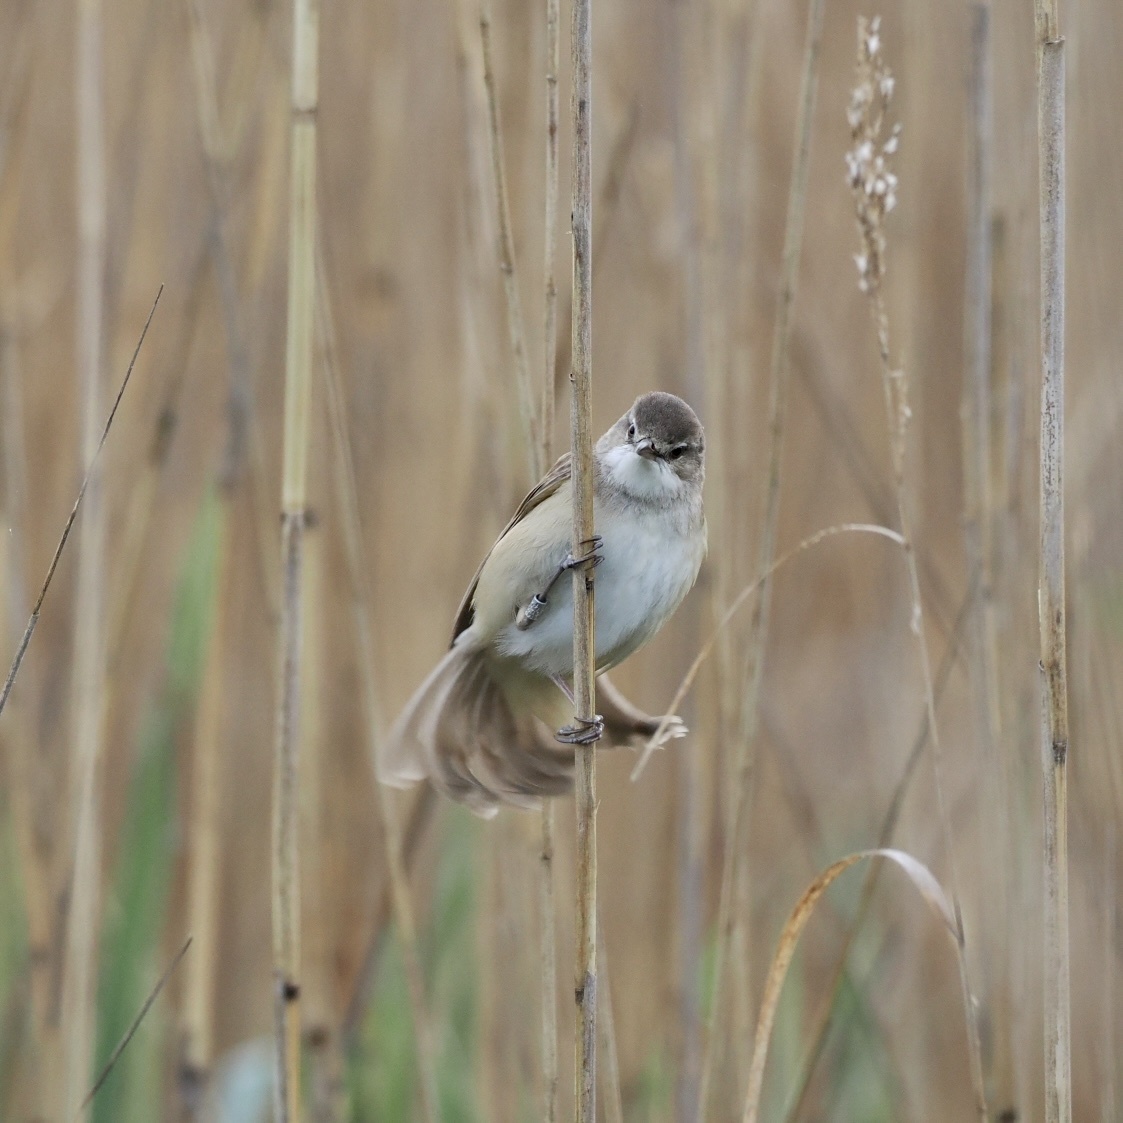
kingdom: Animalia
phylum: Chordata
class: Aves
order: Passeriformes
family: Acrocephalidae
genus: Acrocephalus
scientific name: Acrocephalus arundinaceus
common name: Great reed warbler
